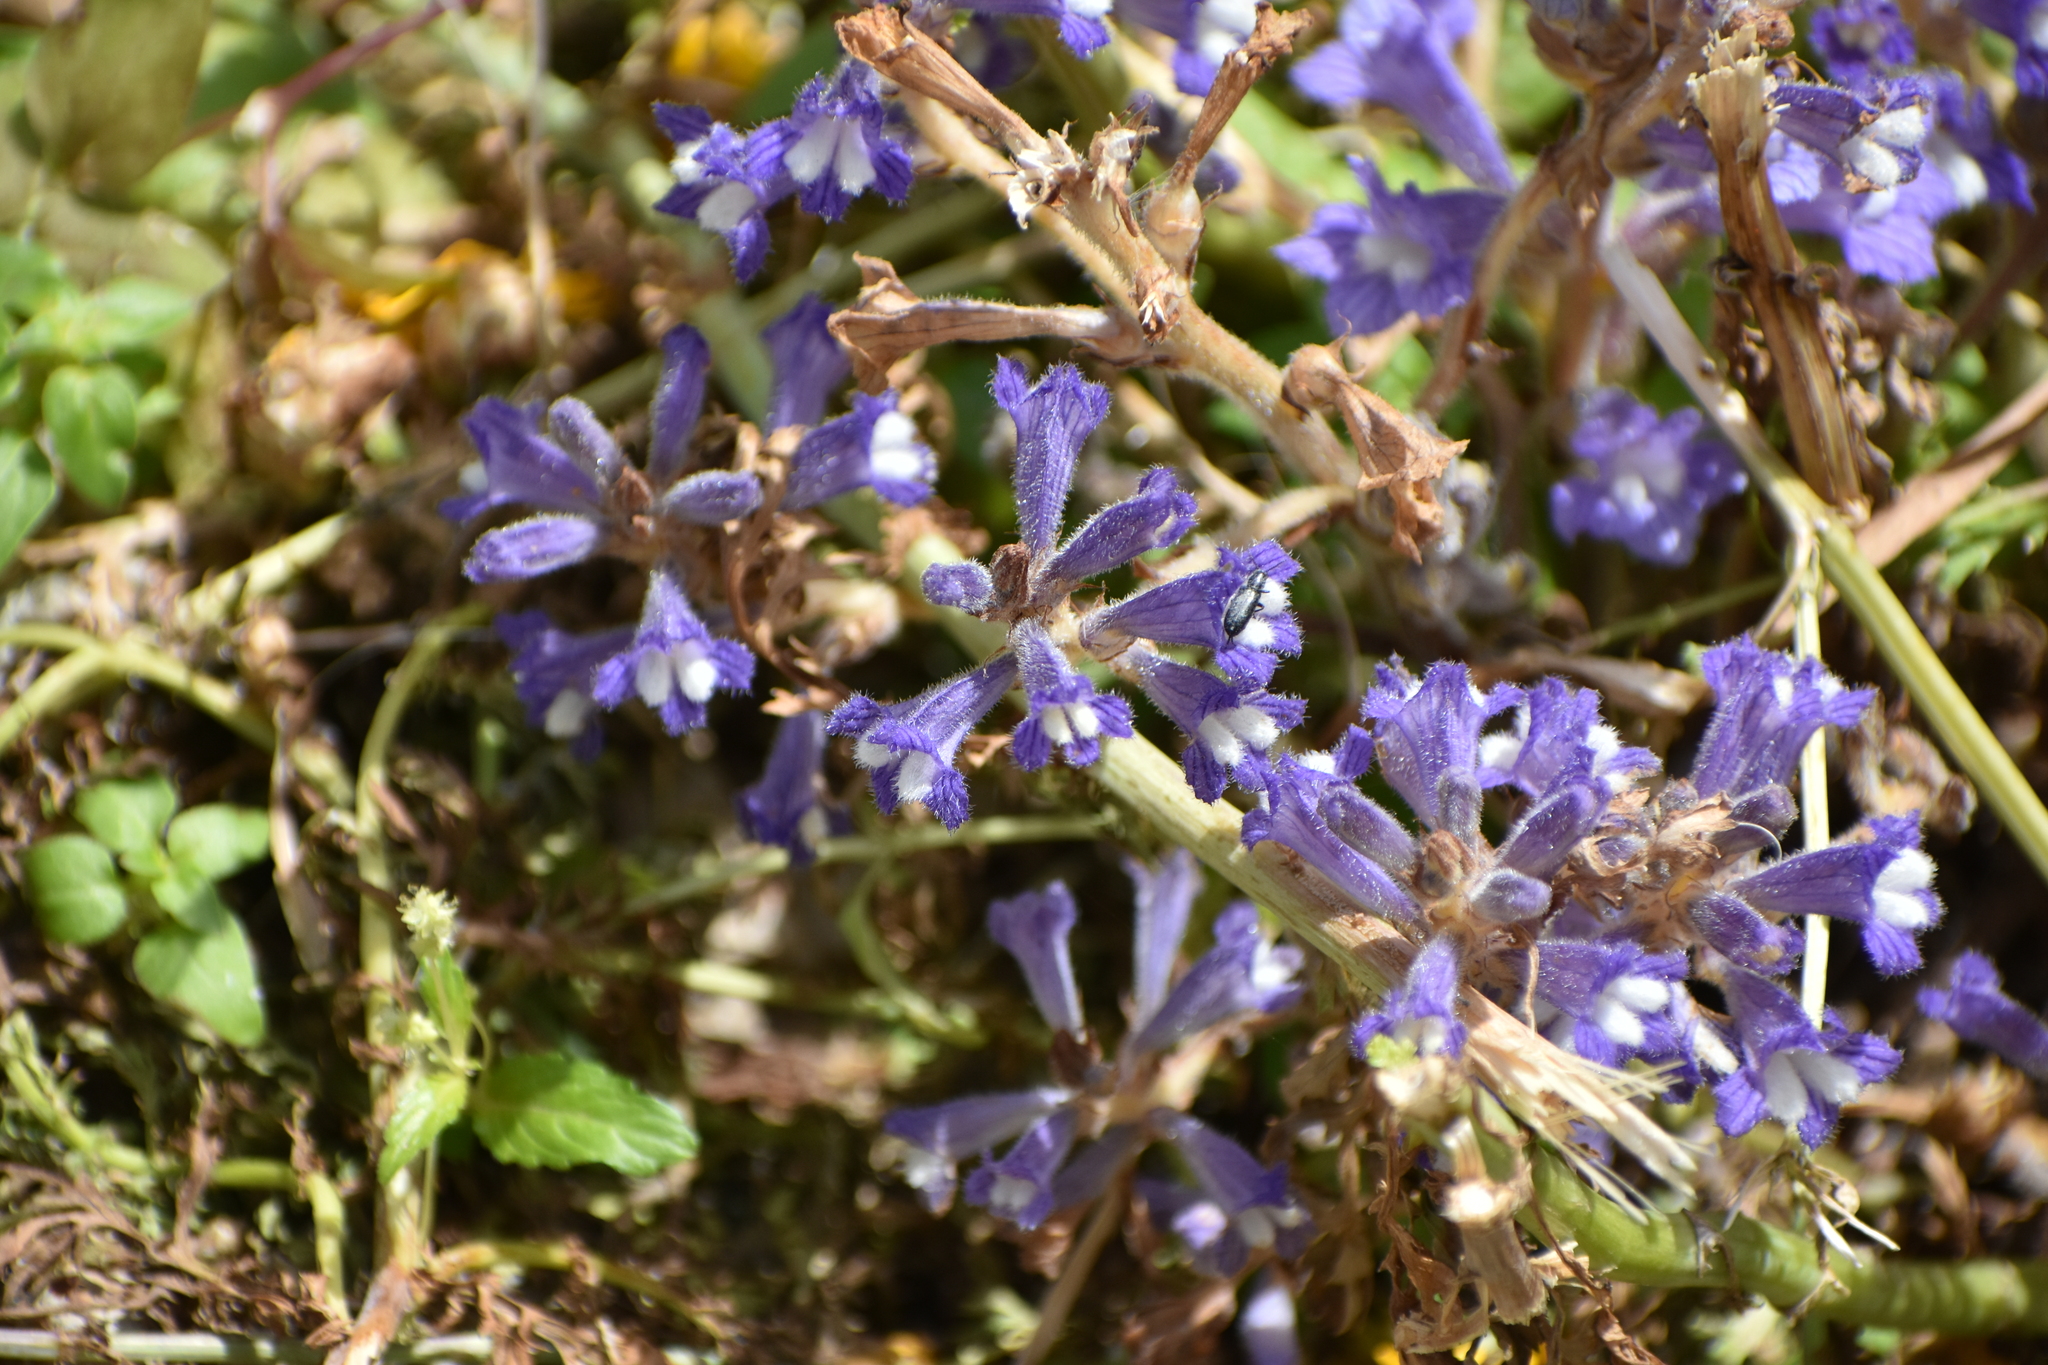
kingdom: Plantae
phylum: Tracheophyta
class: Magnoliopsida
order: Lamiales
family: Orobanchaceae
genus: Phelipanche
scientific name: Phelipanche aegyptiaca
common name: Egyptian broomrape
